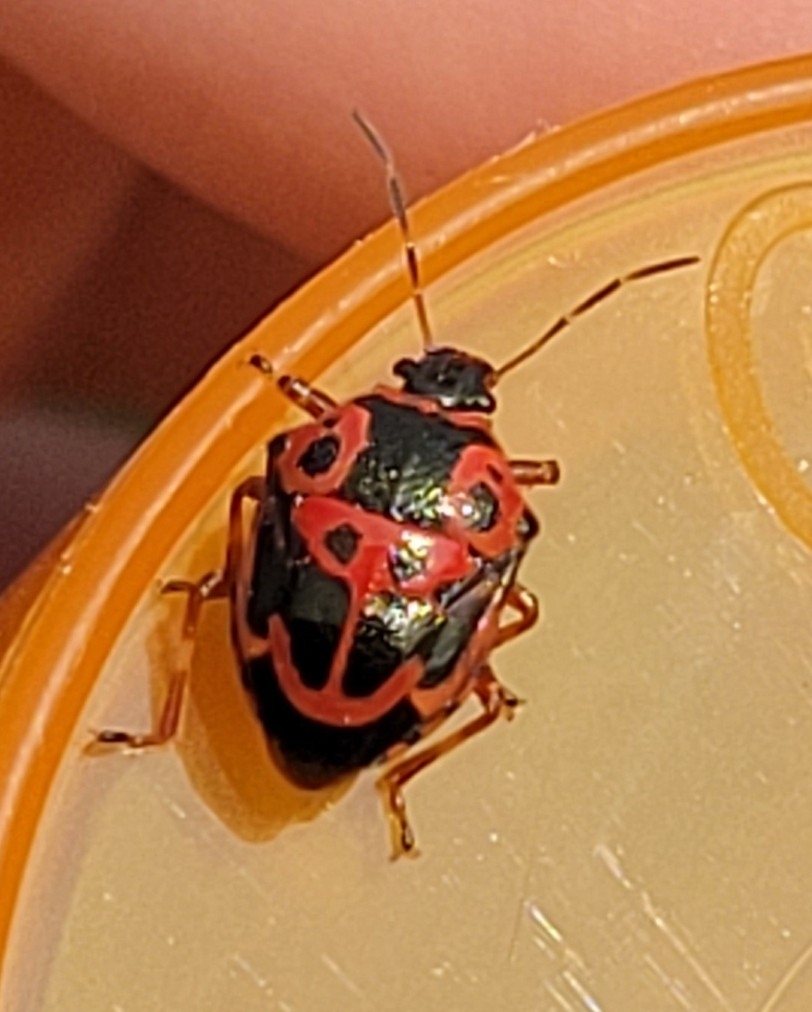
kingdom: Animalia
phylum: Arthropoda
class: Insecta
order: Hemiptera
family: Pentatomidae
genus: Stiretrus
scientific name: Stiretrus anchorago
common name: Anchor stink bug
